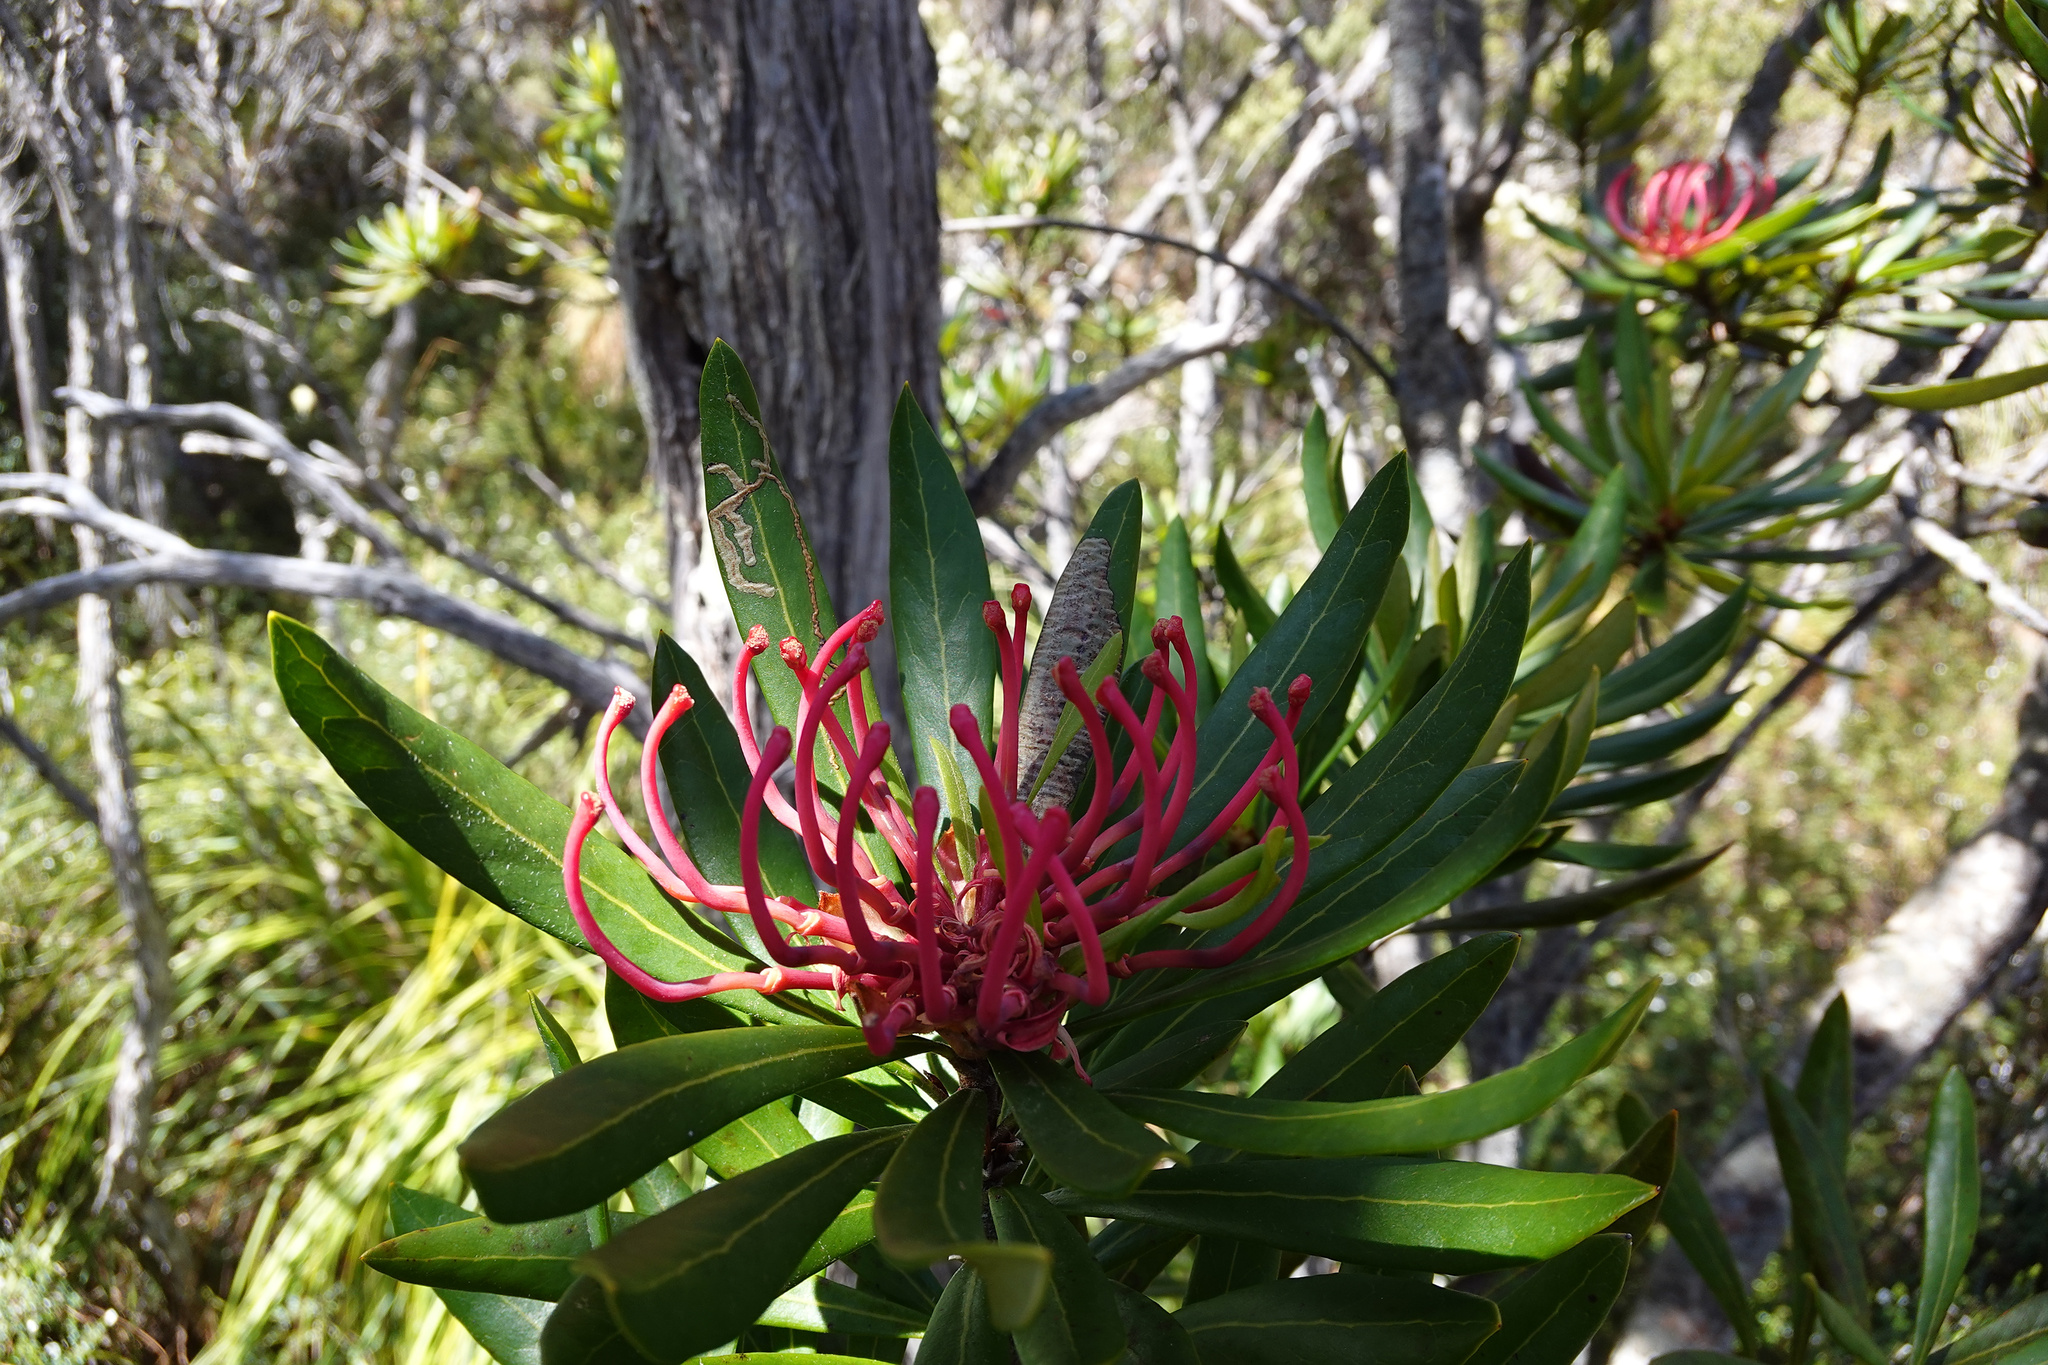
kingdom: Plantae
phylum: Tracheophyta
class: Magnoliopsida
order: Proteales
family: Proteaceae
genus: Telopea
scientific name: Telopea truncata
